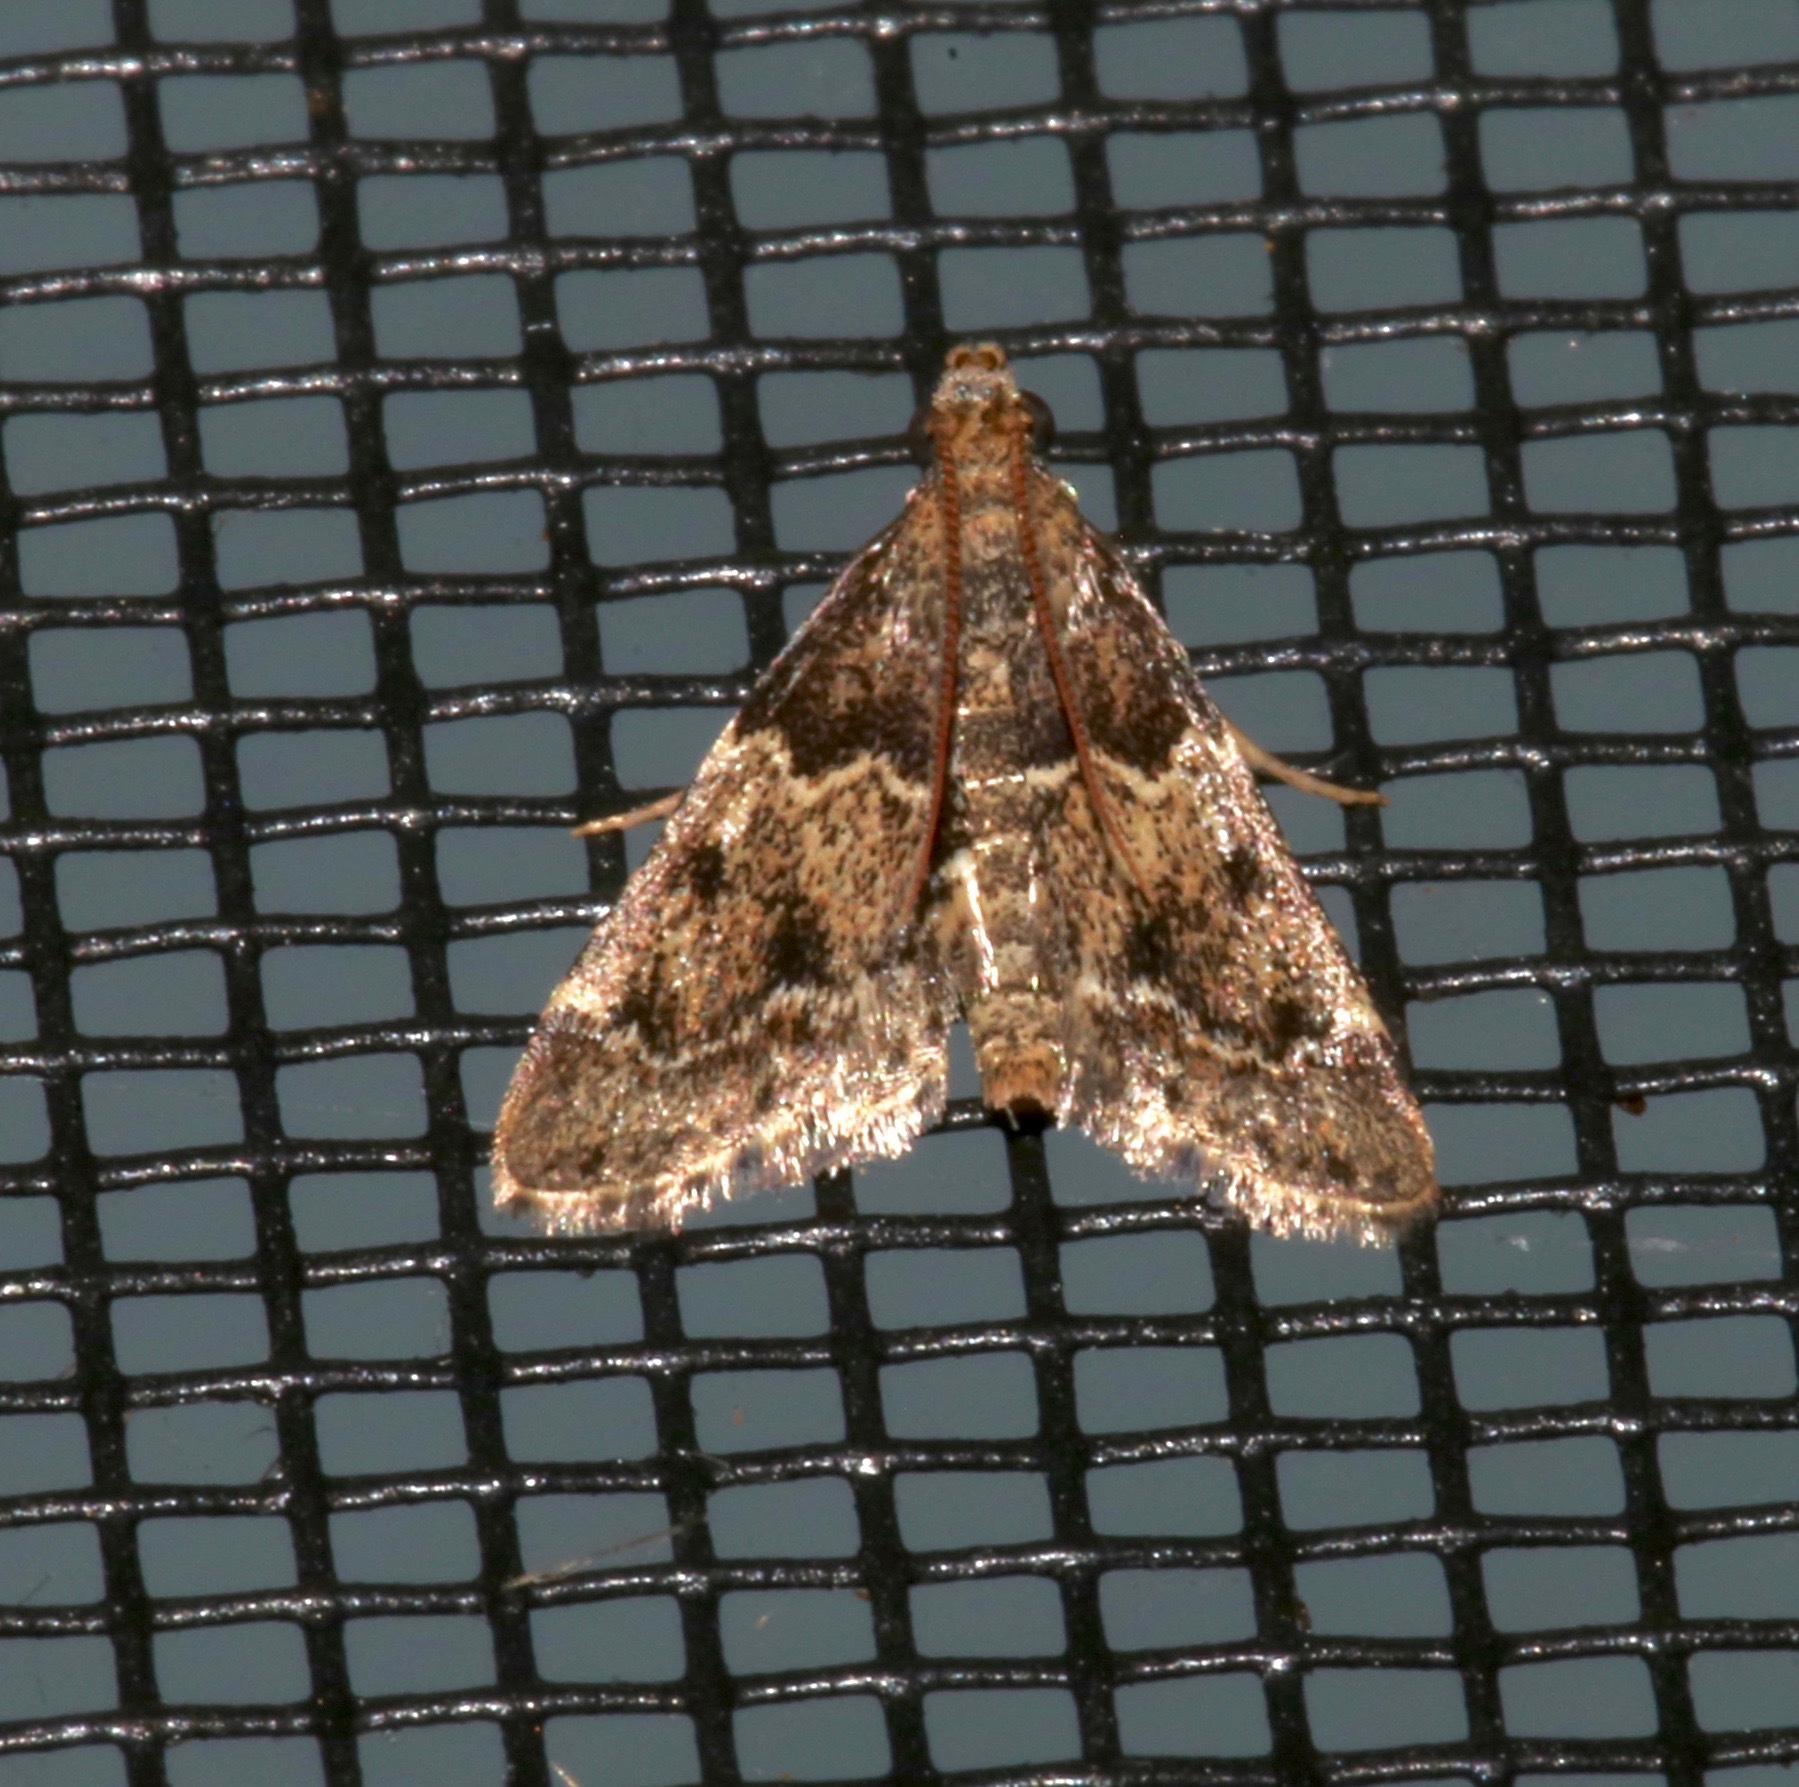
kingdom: Animalia
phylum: Arthropoda
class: Insecta
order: Lepidoptera
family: Pyralidae
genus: Pyralis
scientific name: Pyralis manihotalis
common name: Moth
